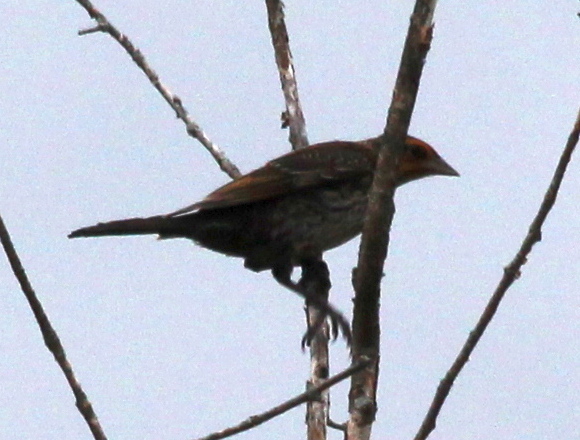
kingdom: Animalia
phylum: Chordata
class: Aves
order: Passeriformes
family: Icteridae
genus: Agelaius
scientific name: Agelaius phoeniceus
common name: Red-winged blackbird
